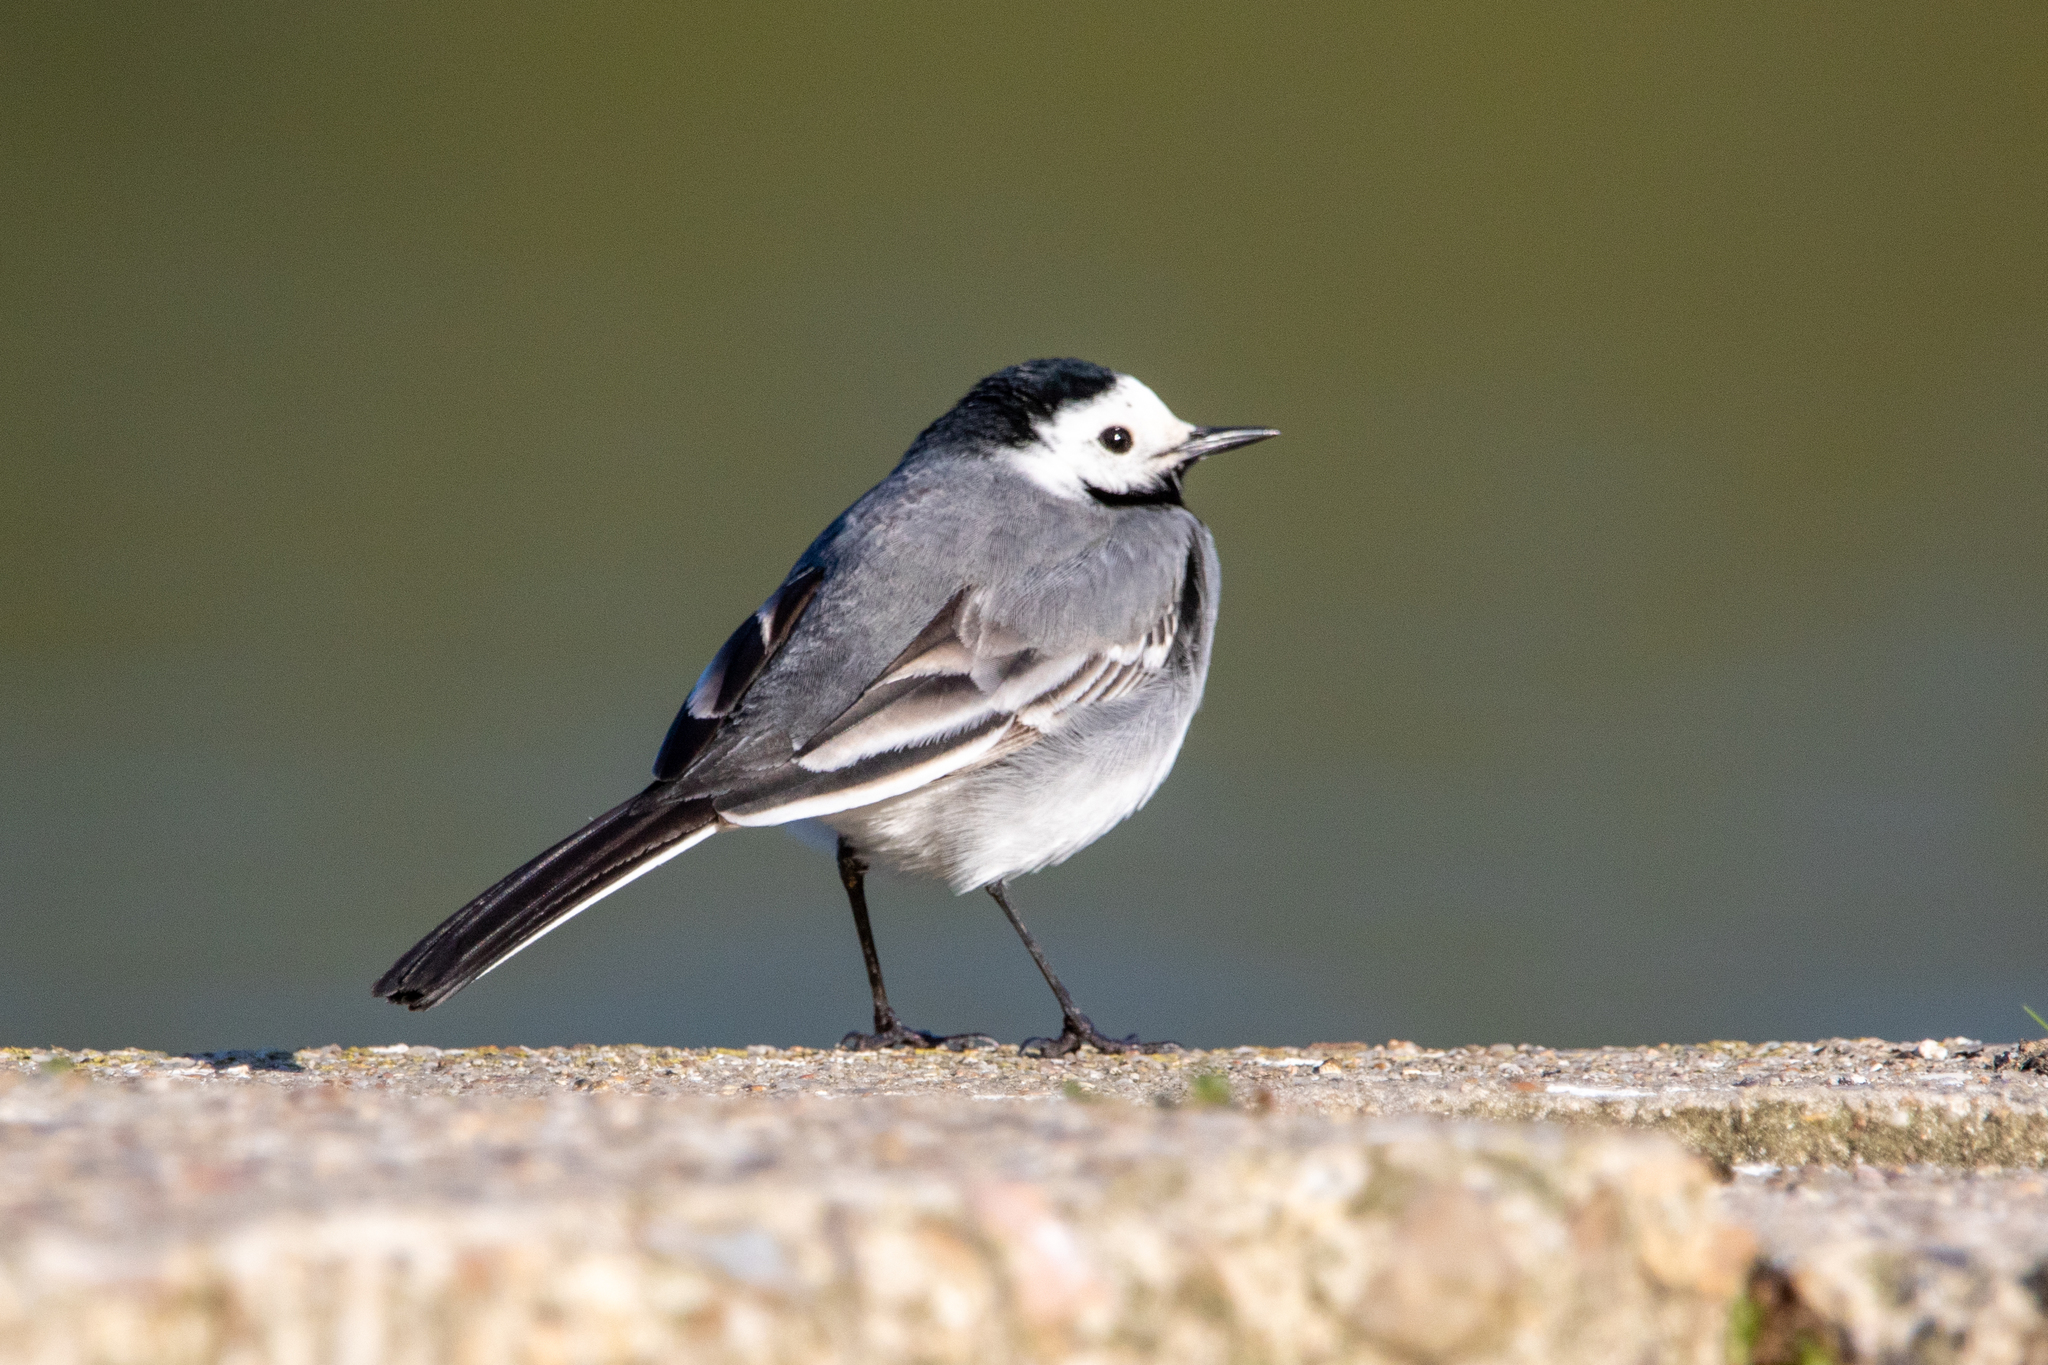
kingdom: Animalia
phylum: Chordata
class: Aves
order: Passeriformes
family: Motacillidae
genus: Motacilla
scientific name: Motacilla alba
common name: White wagtail
